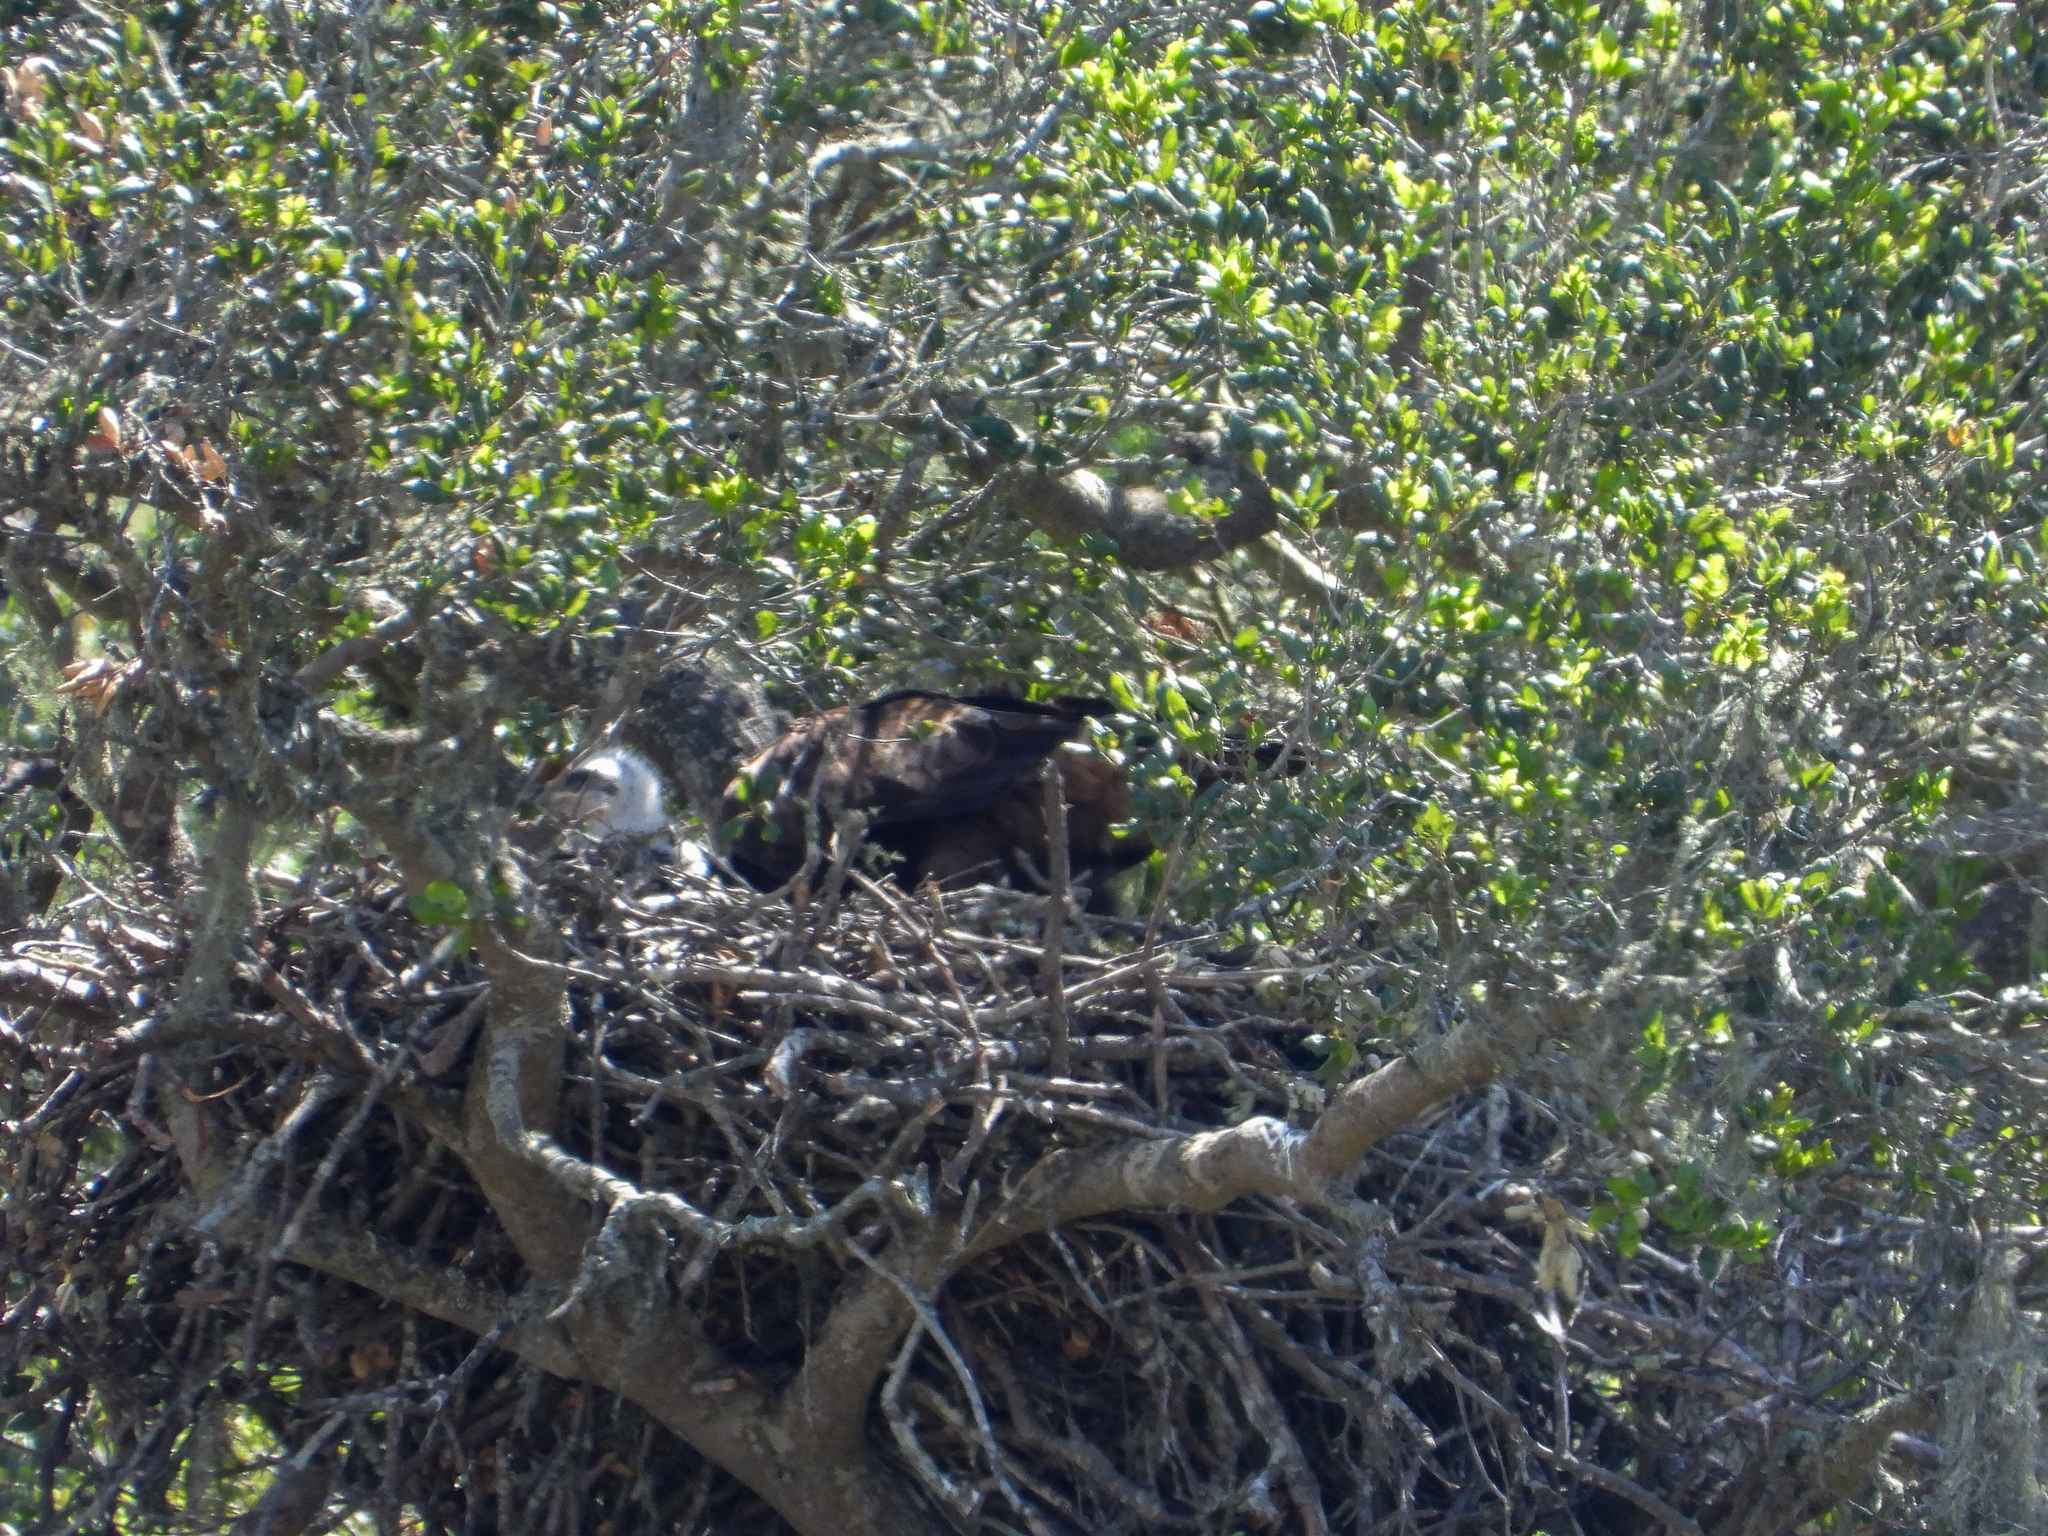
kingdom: Animalia
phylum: Chordata
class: Aves
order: Accipitriformes
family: Accipitridae
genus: Aquila
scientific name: Aquila chrysaetos
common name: Golden eagle
